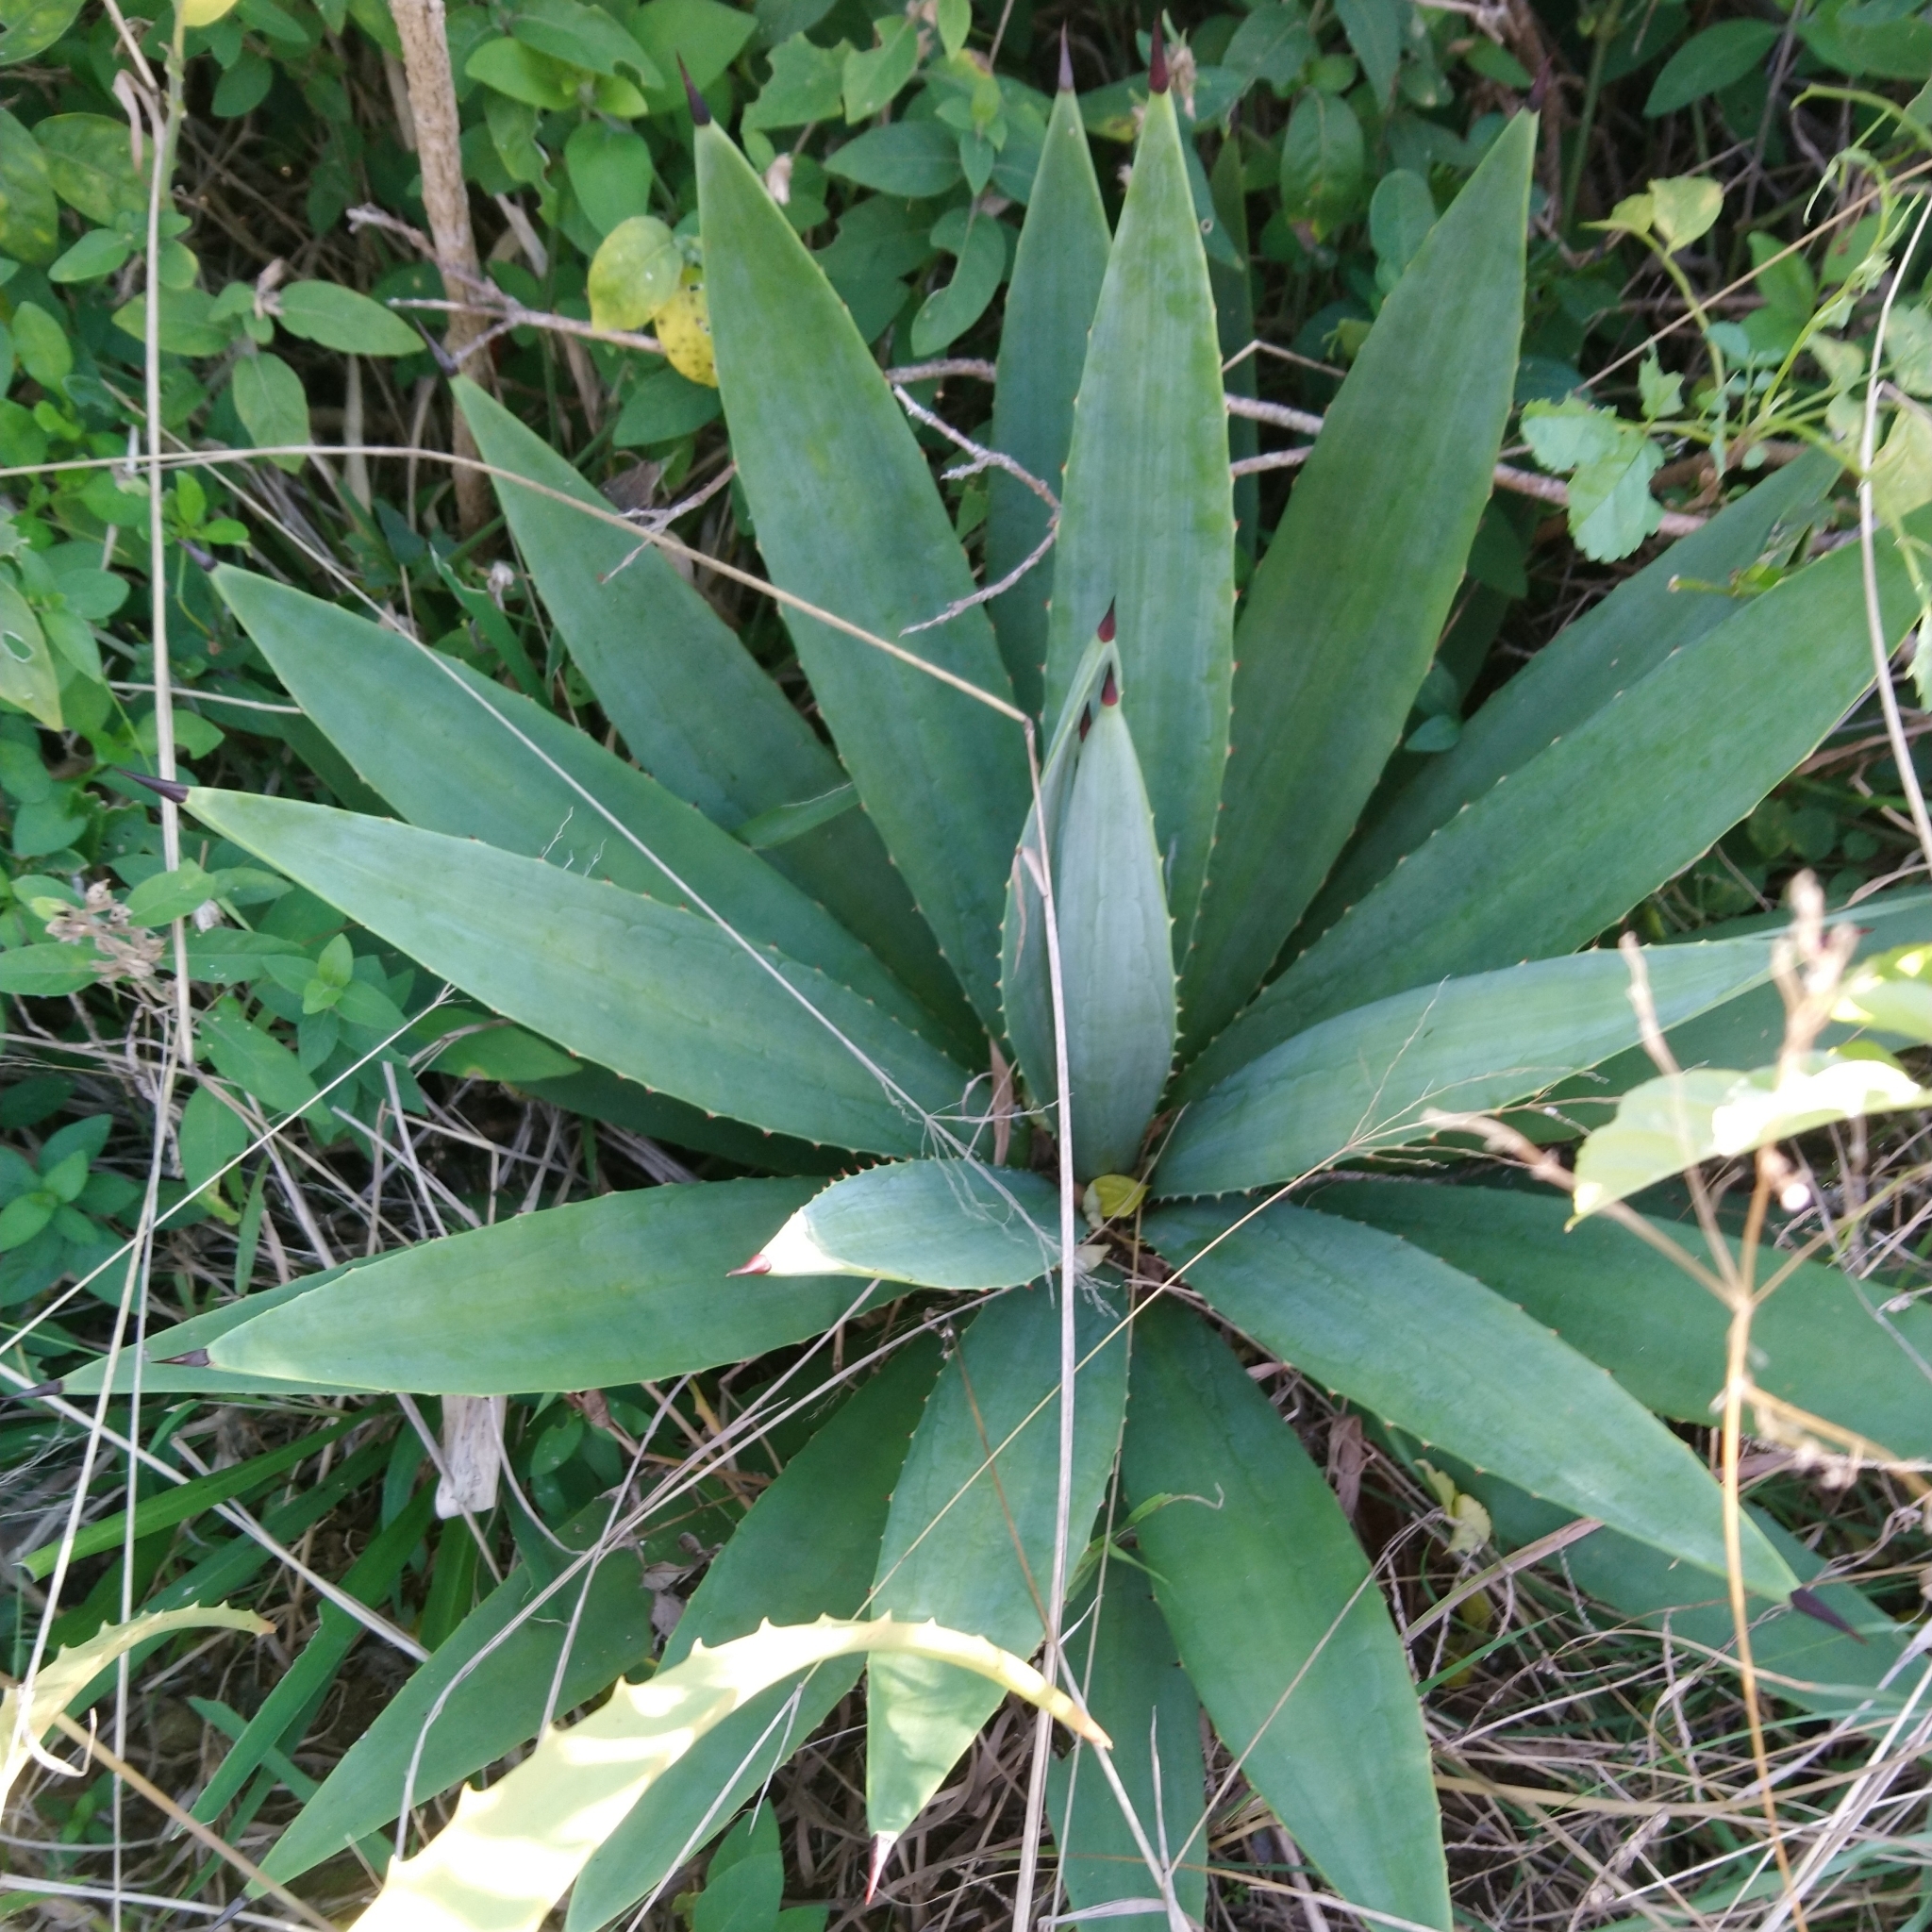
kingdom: Plantae
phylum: Tracheophyta
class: Liliopsida
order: Asparagales
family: Asparagaceae
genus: Agave
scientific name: Agave angustifolia
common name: Mescal agave
